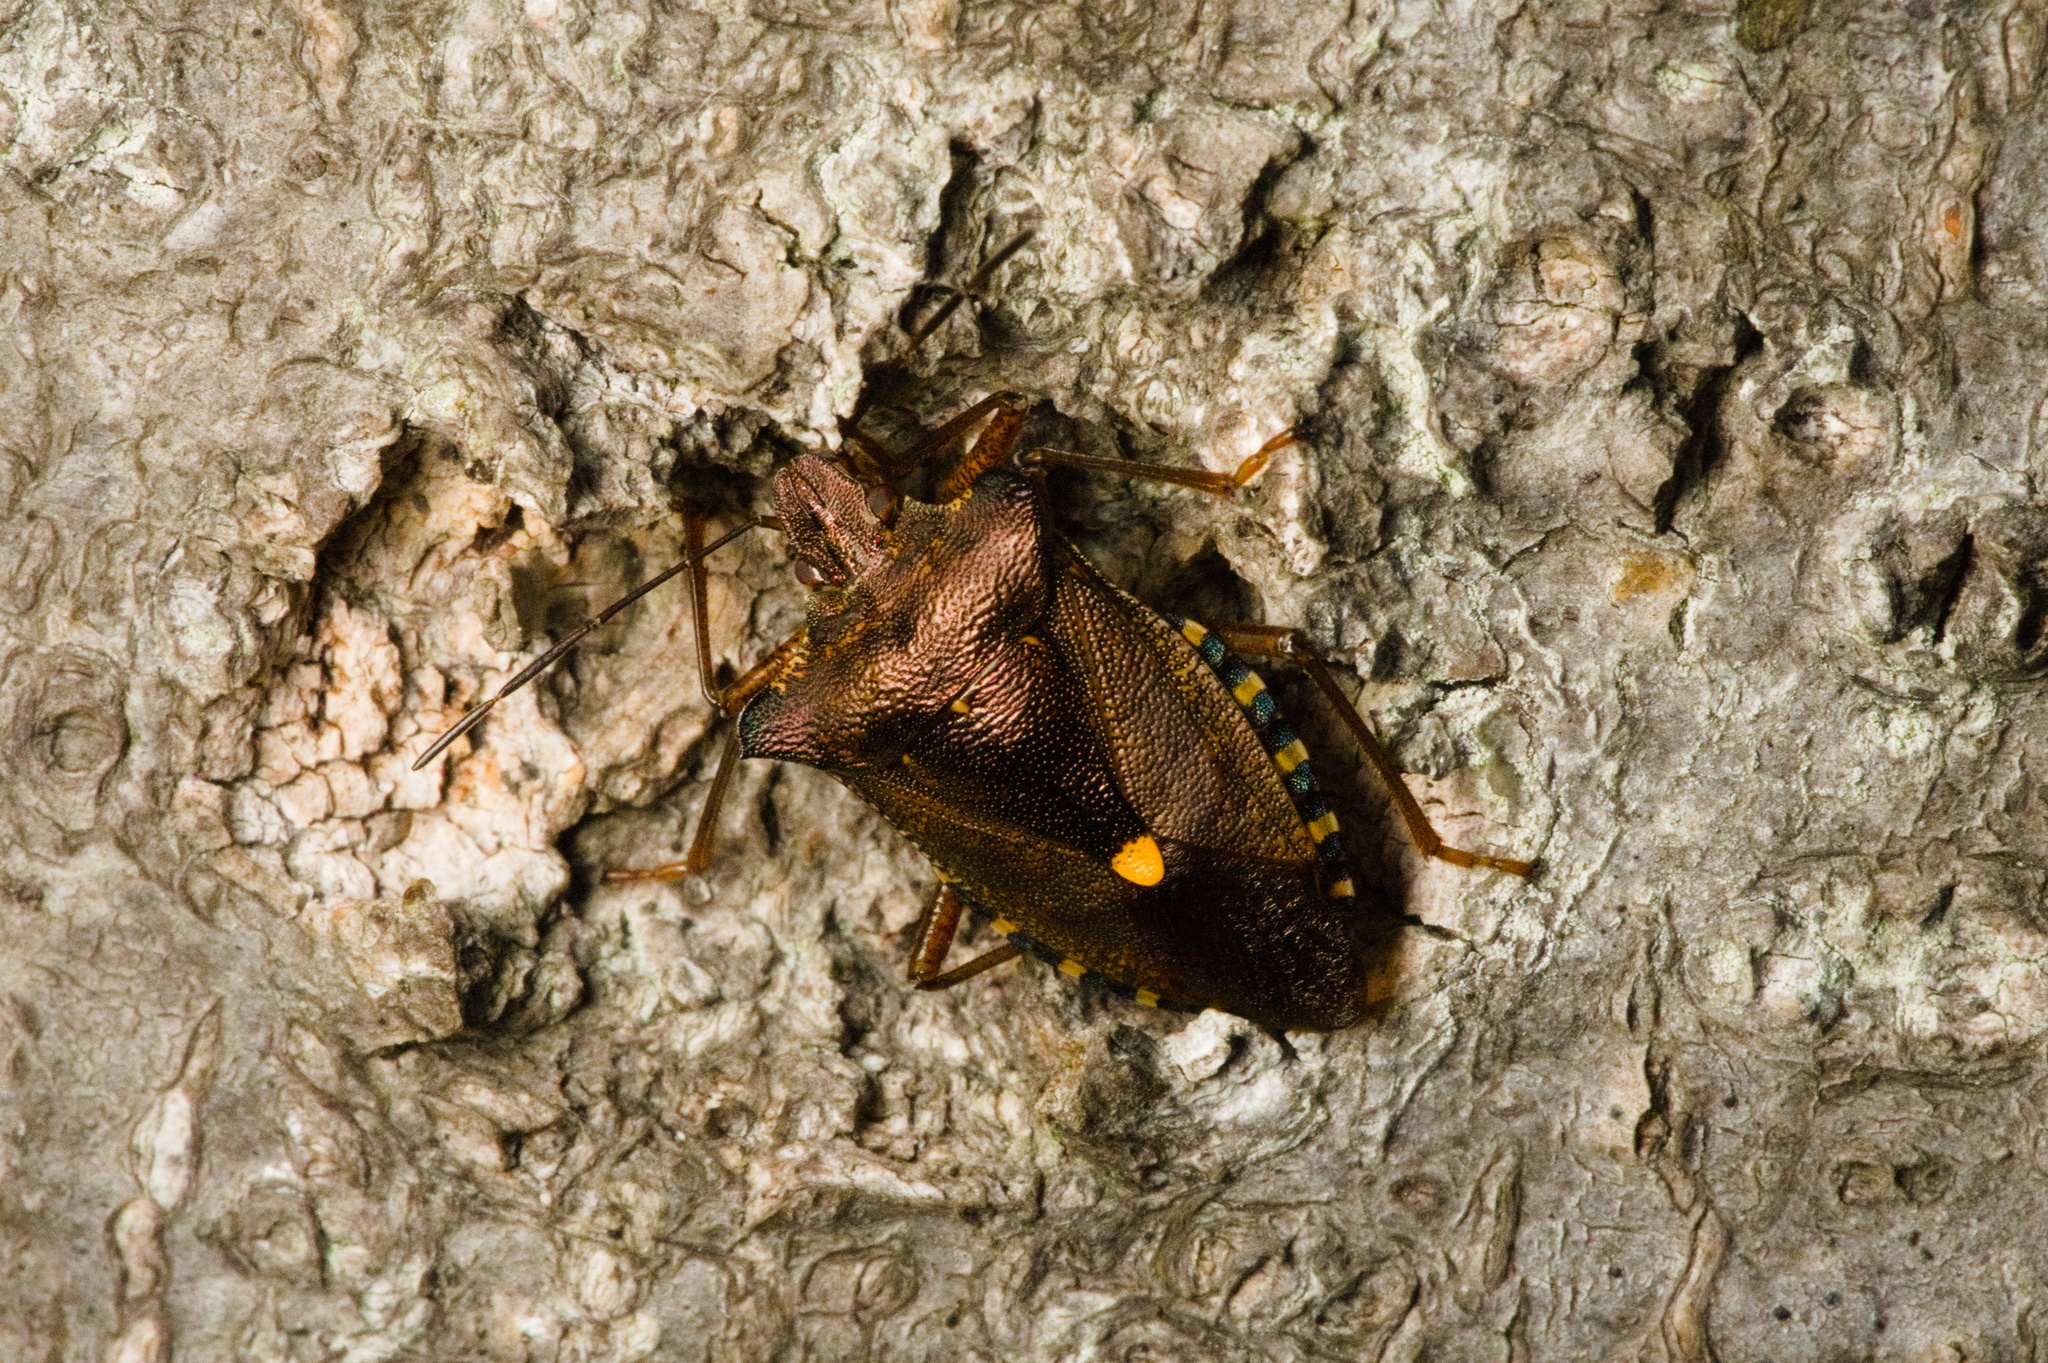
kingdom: Animalia
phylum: Arthropoda
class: Insecta
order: Hemiptera
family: Pentatomidae
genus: Pentatoma
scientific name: Pentatoma rufipes
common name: Forest bug
